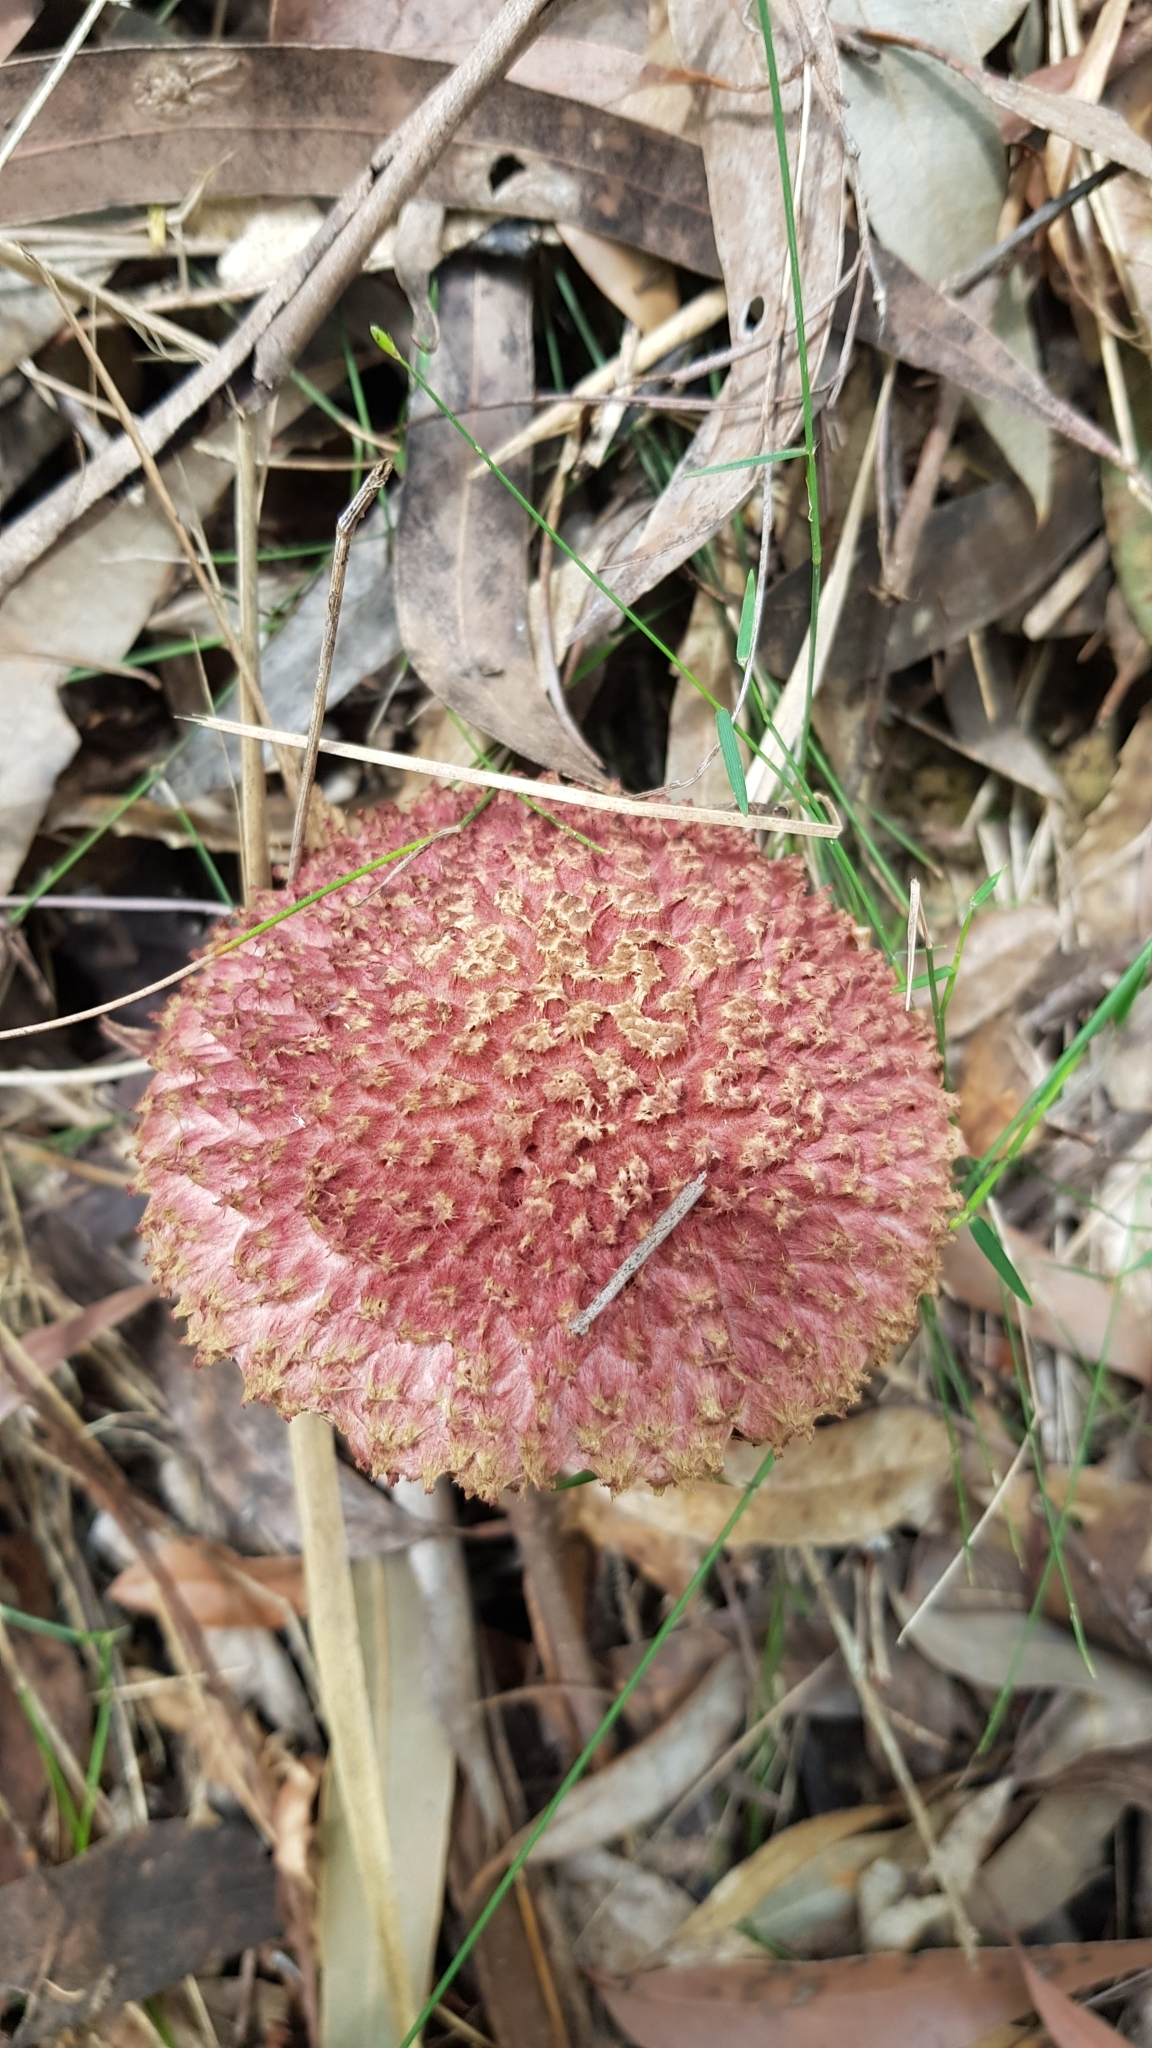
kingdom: Fungi
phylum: Basidiomycota
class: Agaricomycetes
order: Boletales
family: Boletaceae
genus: Boletellus
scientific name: Boletellus deceptivus
